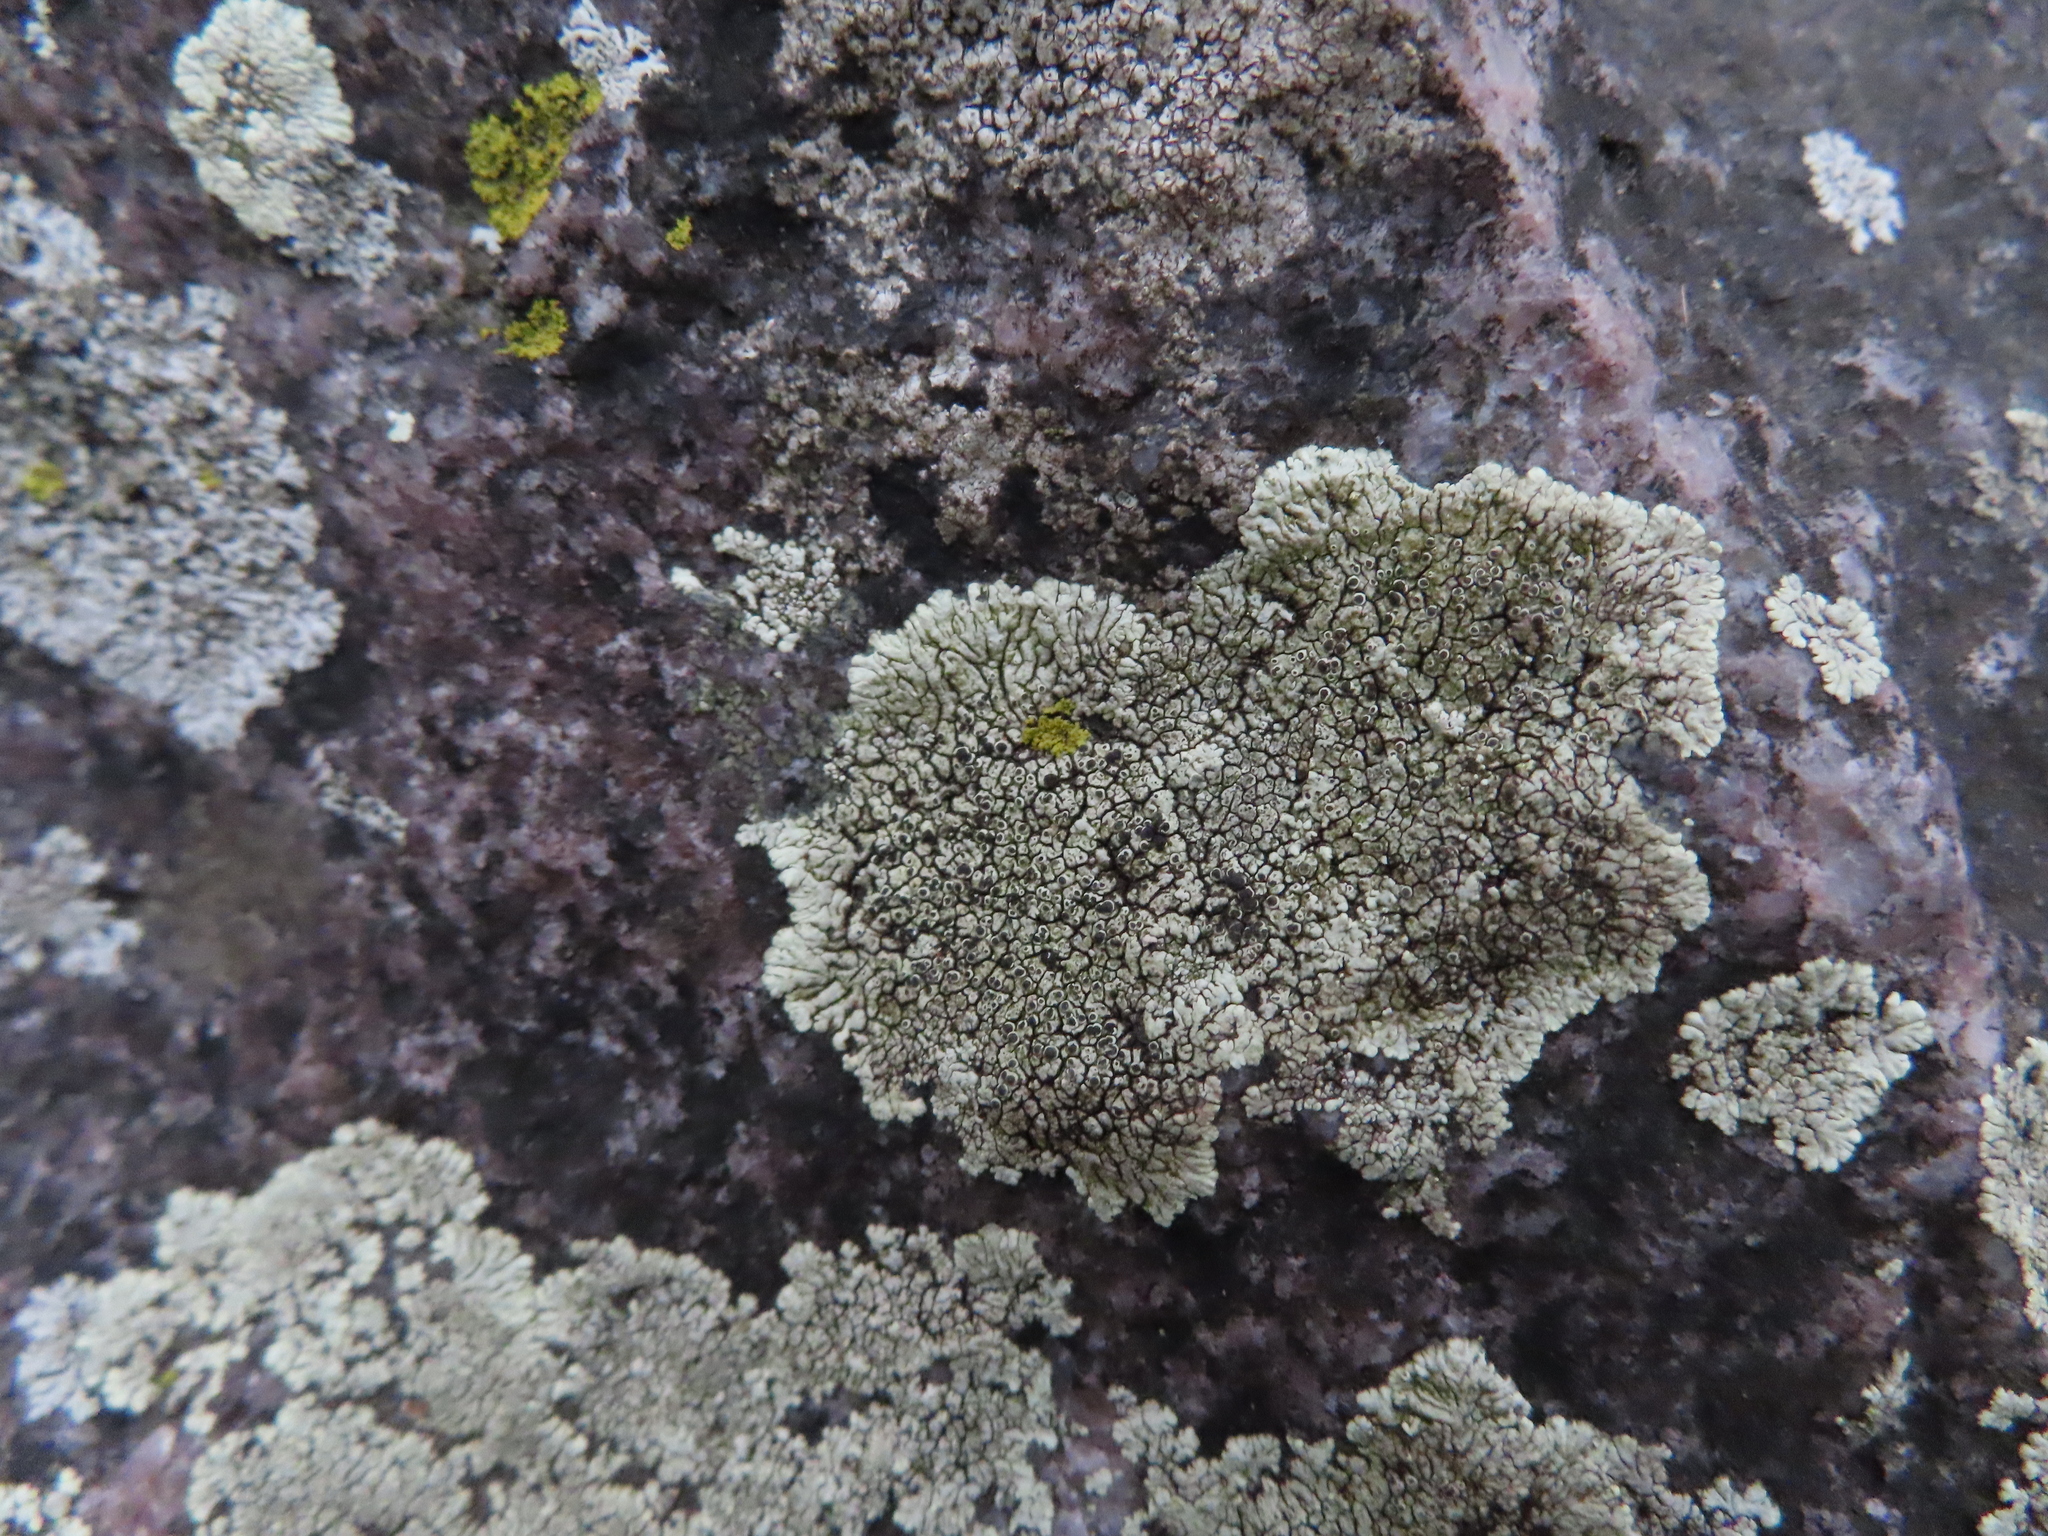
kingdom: Fungi
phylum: Ascomycota
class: Lecanoromycetes
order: Caliciales
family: Caliciaceae
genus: Dimelaena
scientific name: Dimelaena oreina
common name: Golden moonglow lichen
